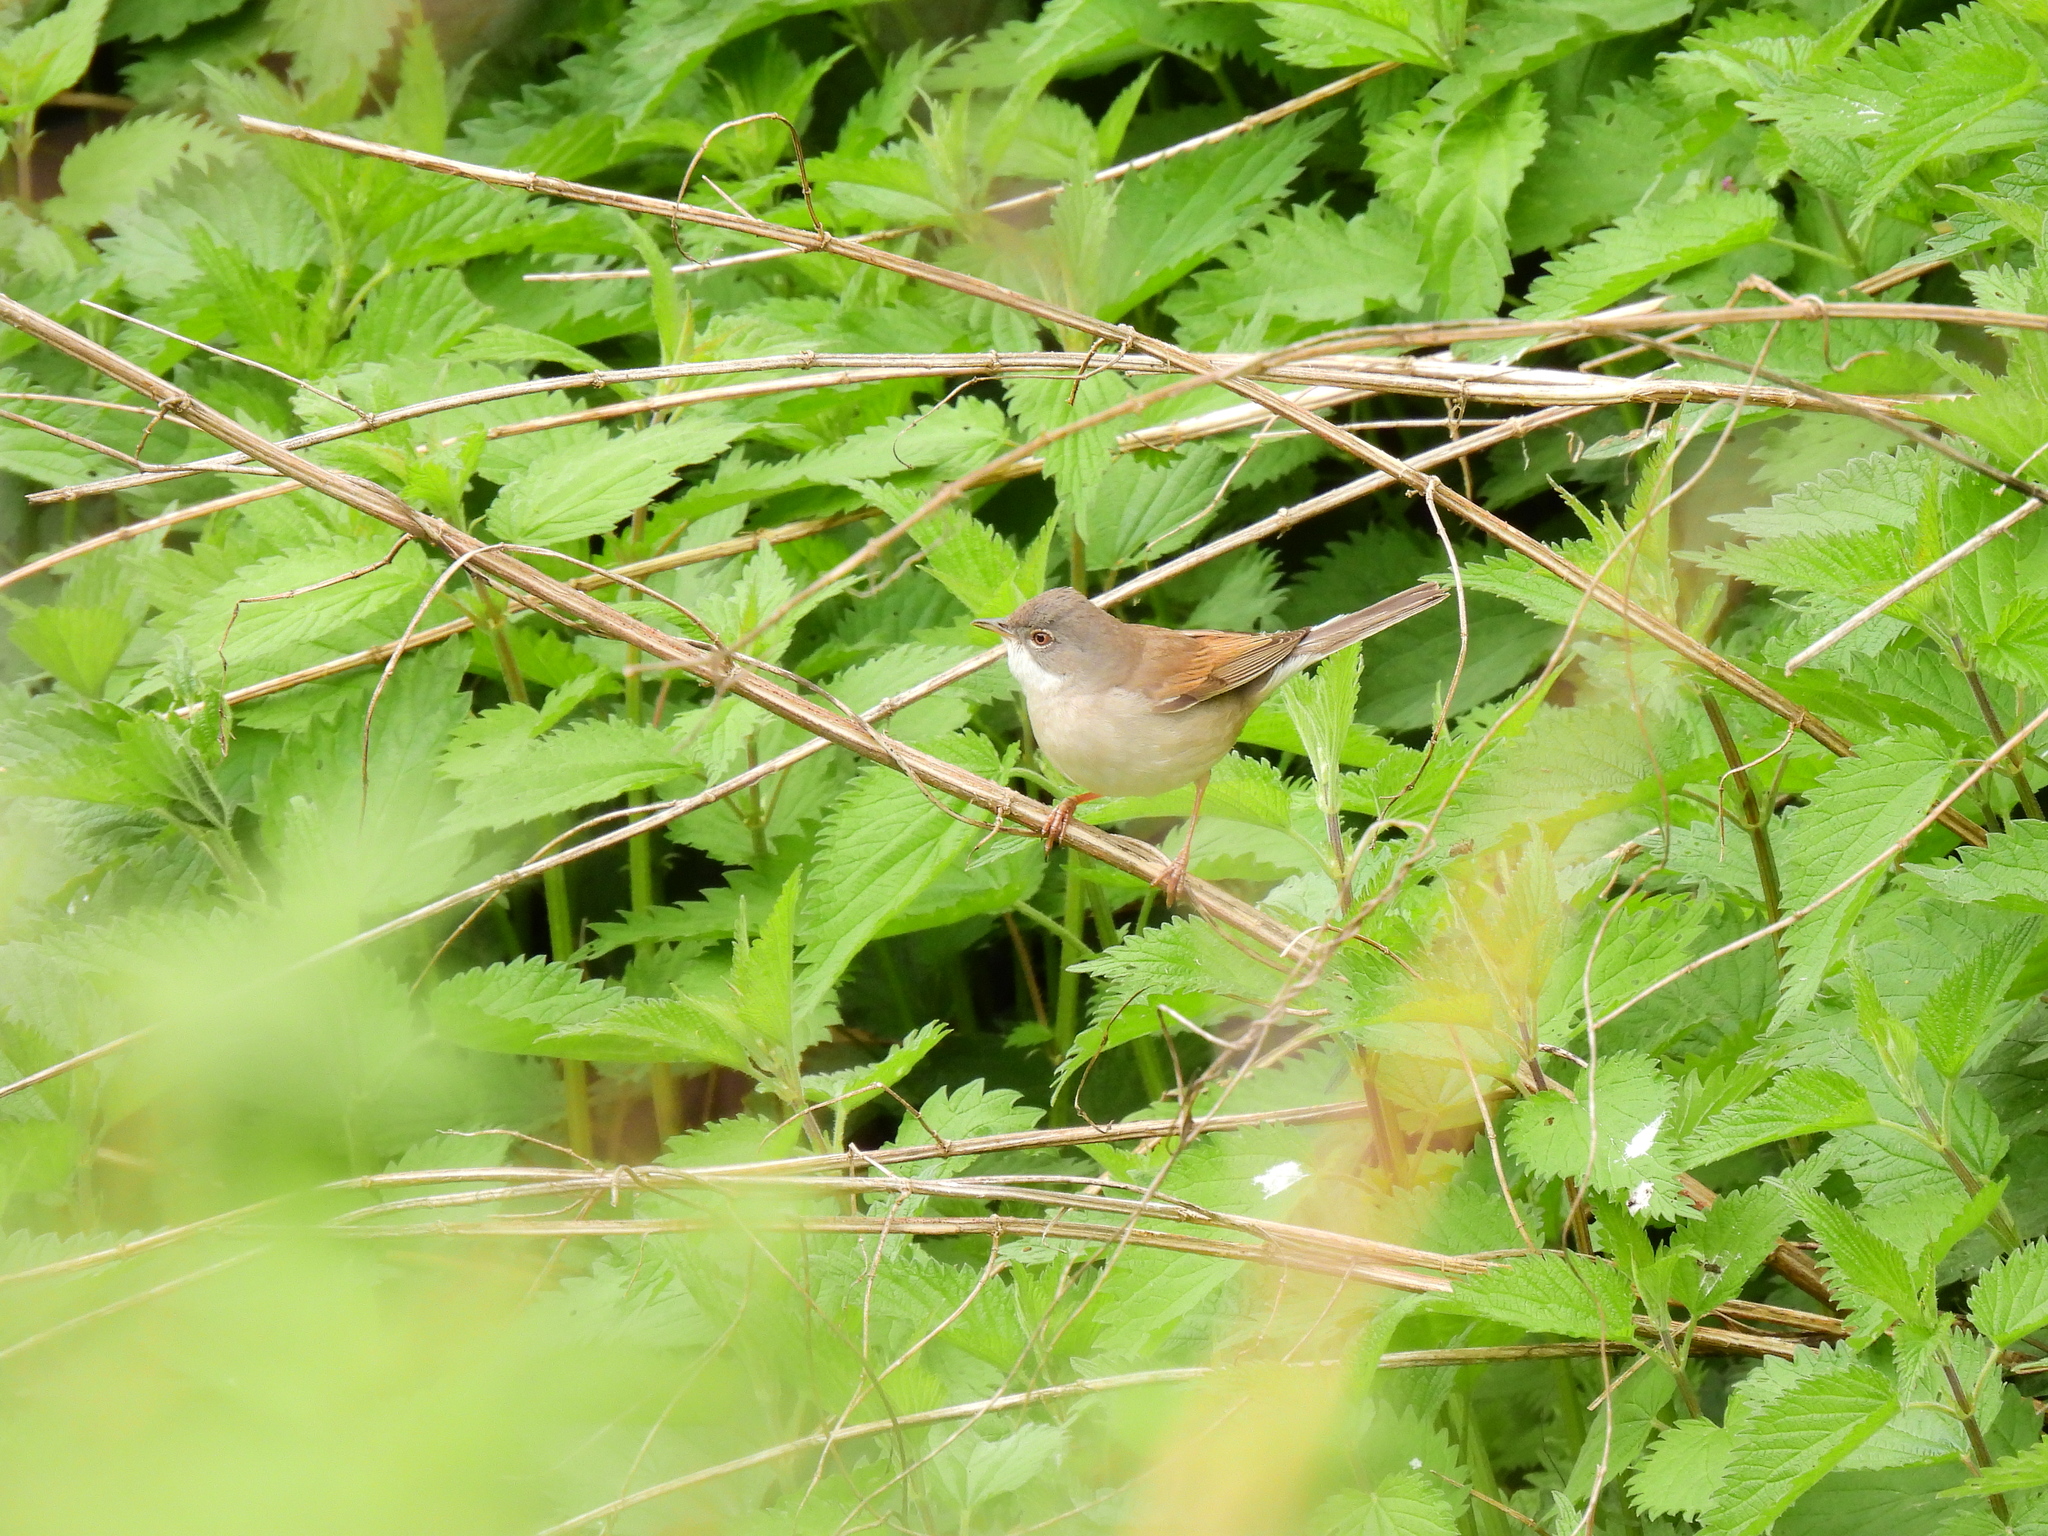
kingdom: Animalia
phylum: Chordata
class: Aves
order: Passeriformes
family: Sylviidae
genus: Sylvia
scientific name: Sylvia communis
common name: Common whitethroat
